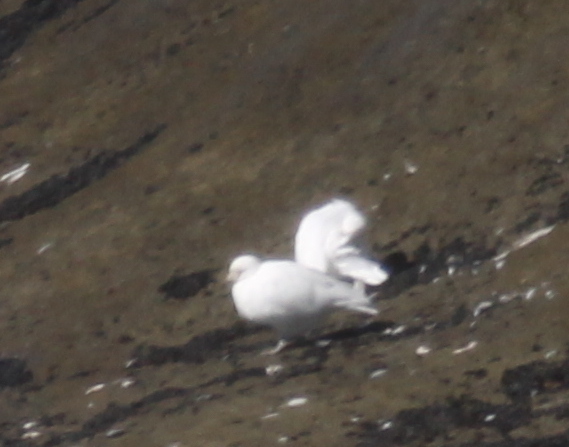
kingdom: Animalia
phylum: Chordata
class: Aves
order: Charadriiformes
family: Chionidae
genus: Chionis
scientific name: Chionis albus
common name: Snowy sheathbill
